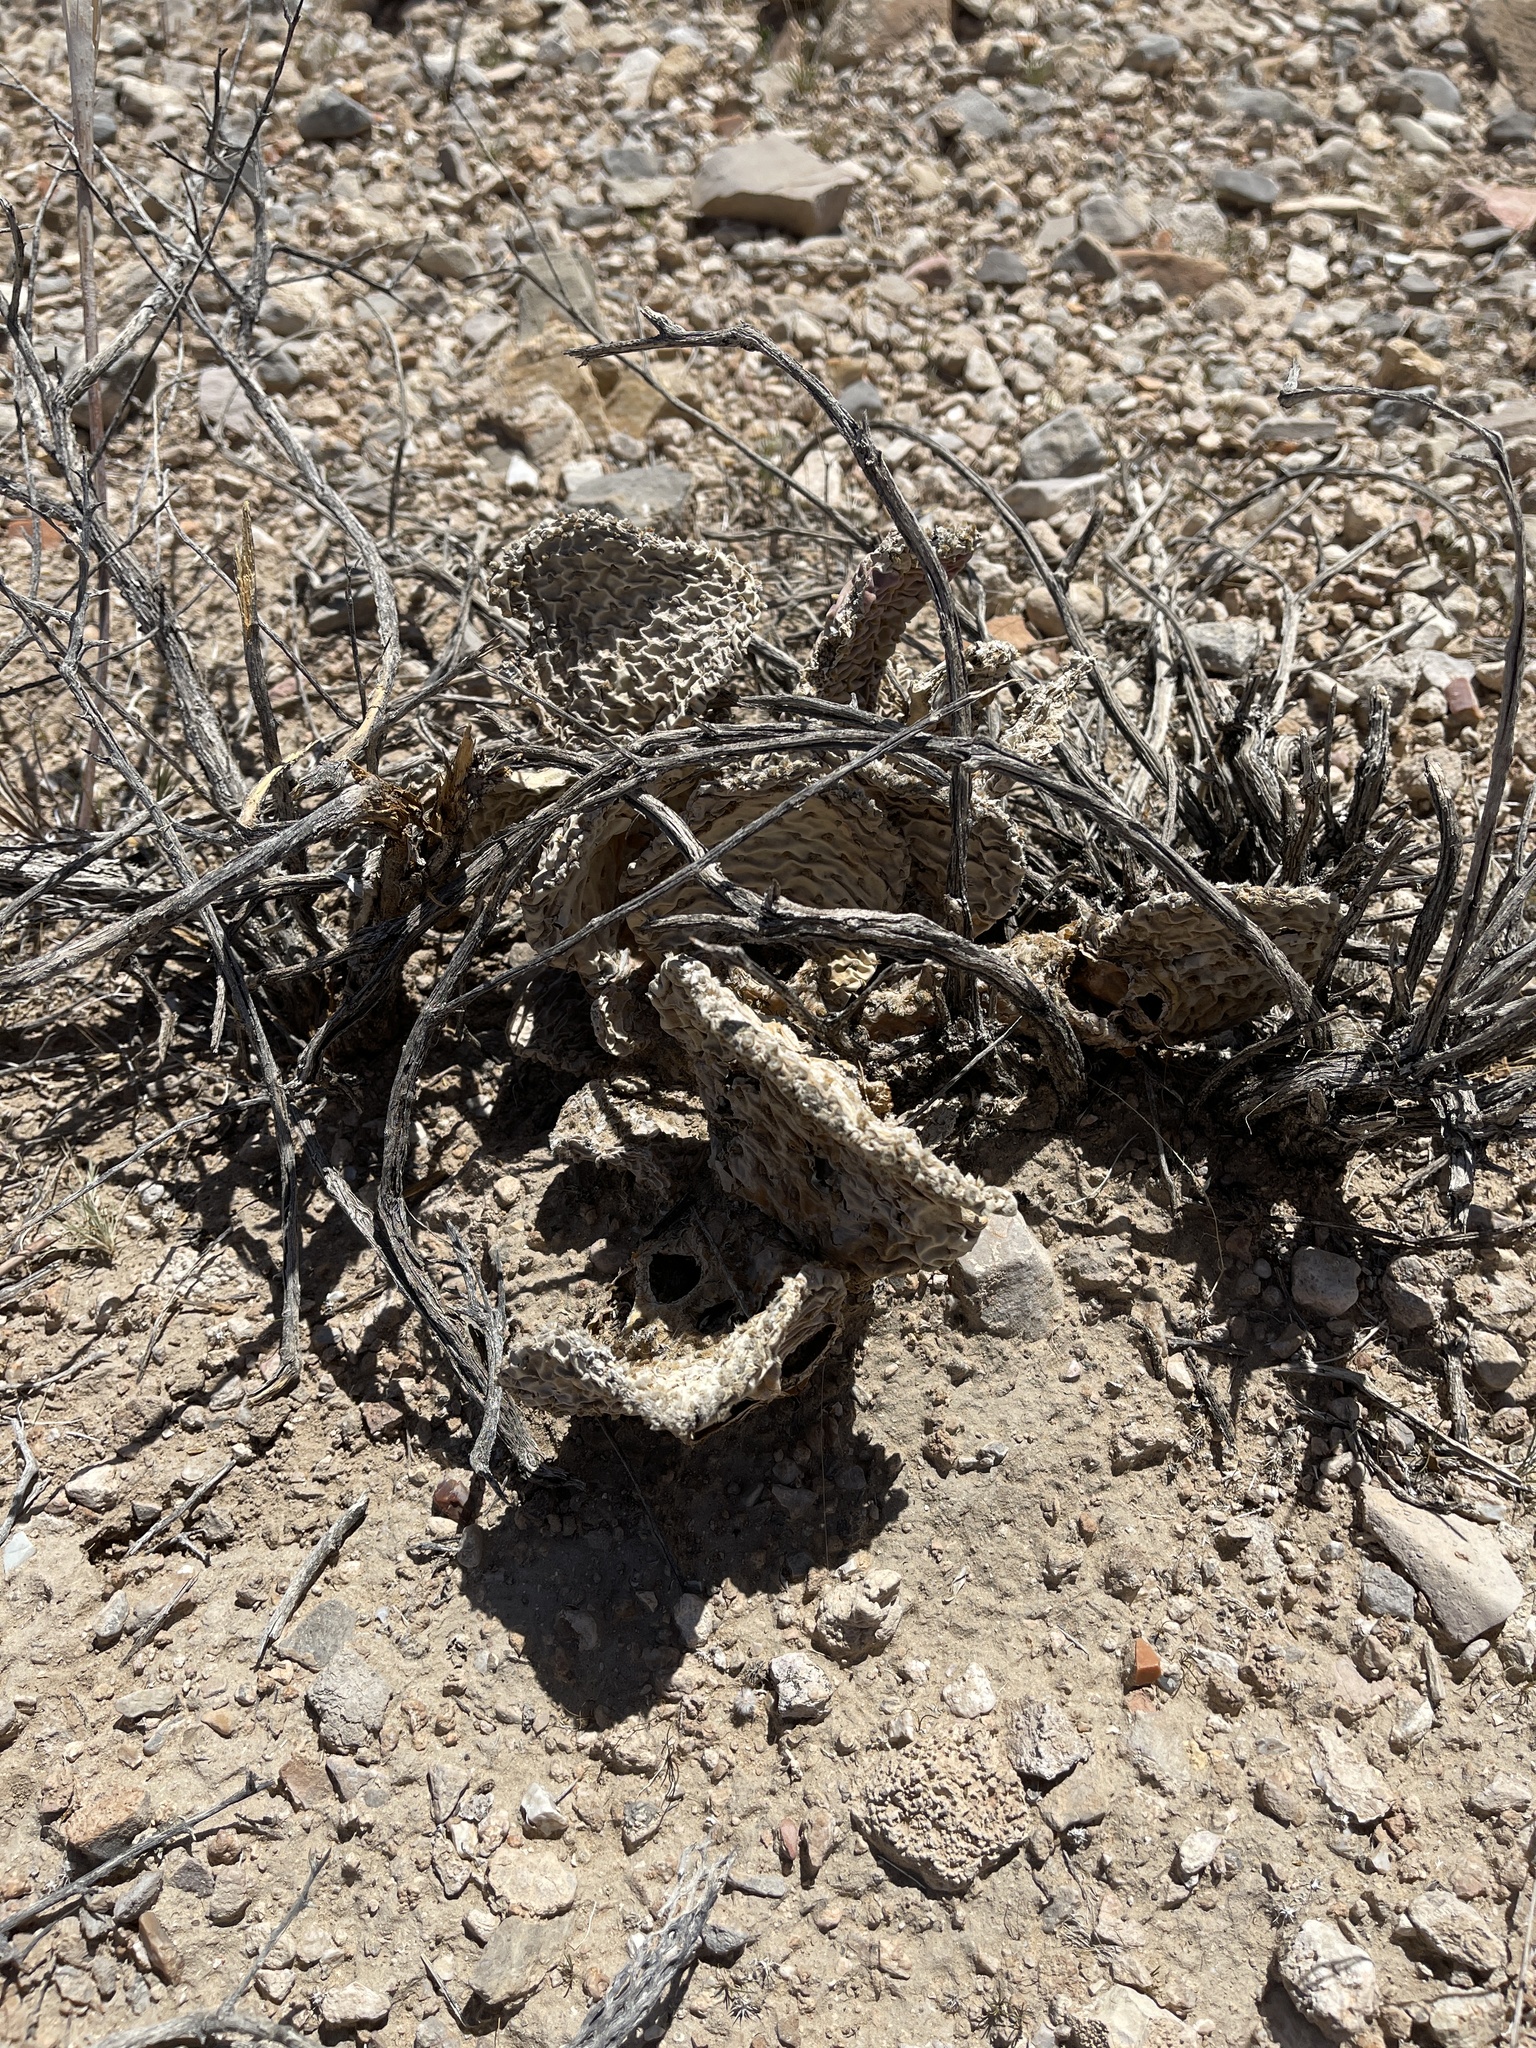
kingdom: Plantae
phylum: Tracheophyta
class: Magnoliopsida
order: Caryophyllales
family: Cactaceae
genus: Opuntia
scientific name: Opuntia basilaris
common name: Beavertail prickly-pear
